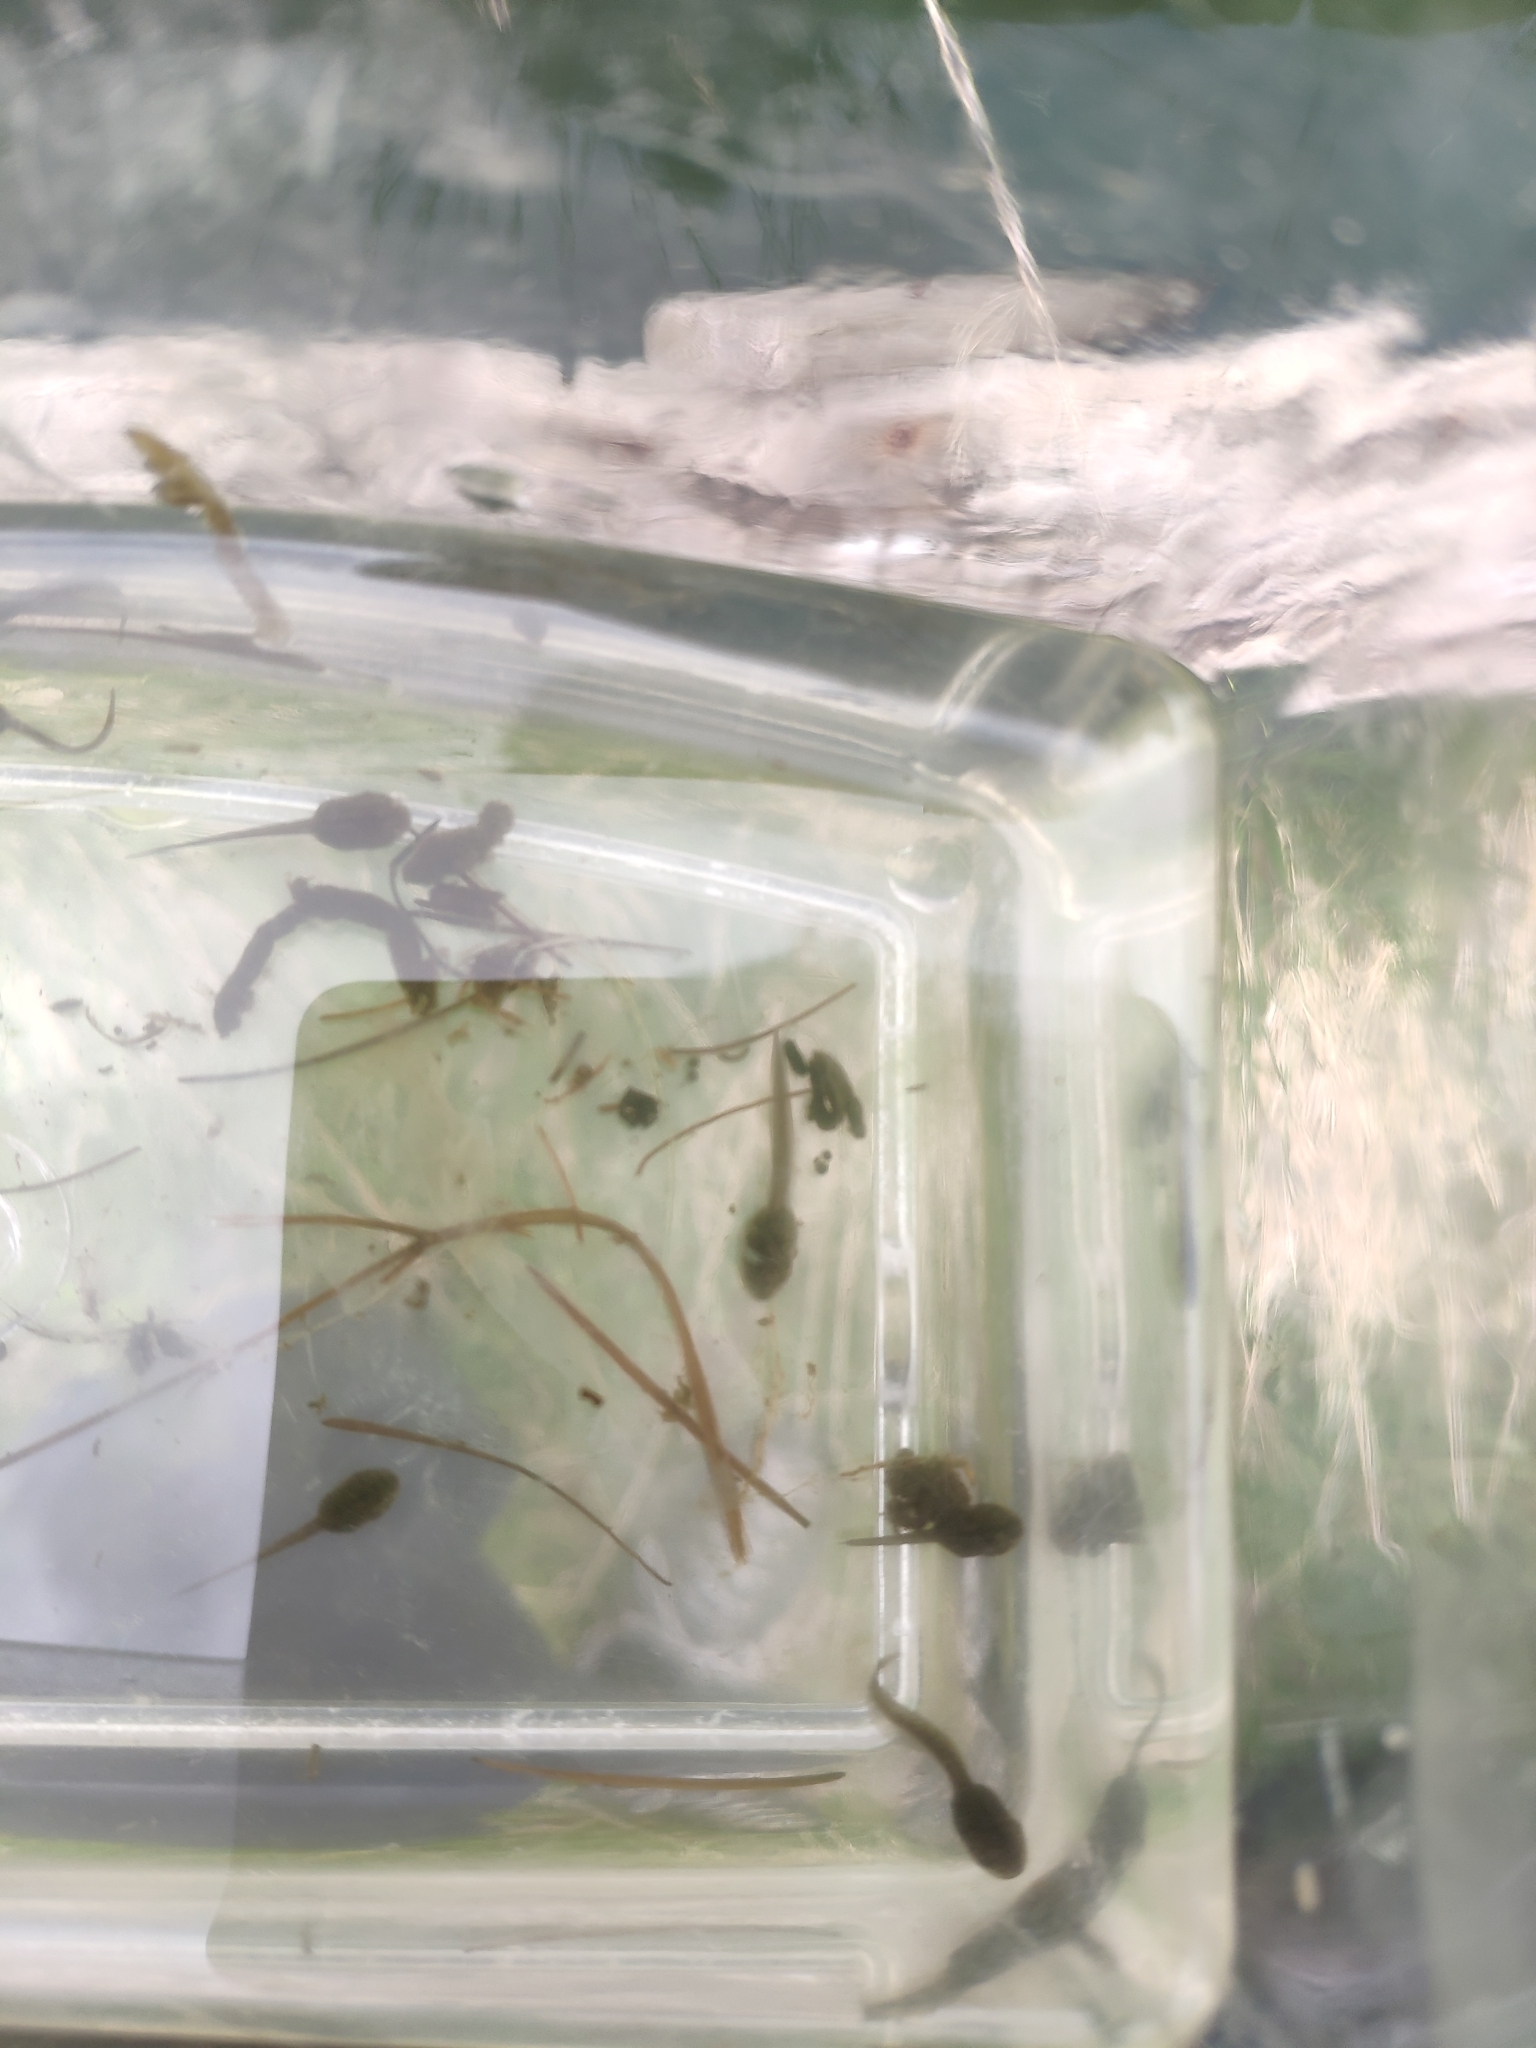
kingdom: Animalia
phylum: Chordata
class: Amphibia
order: Anura
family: Ranidae
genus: Rana
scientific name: Rana temporaria
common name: Common frog
